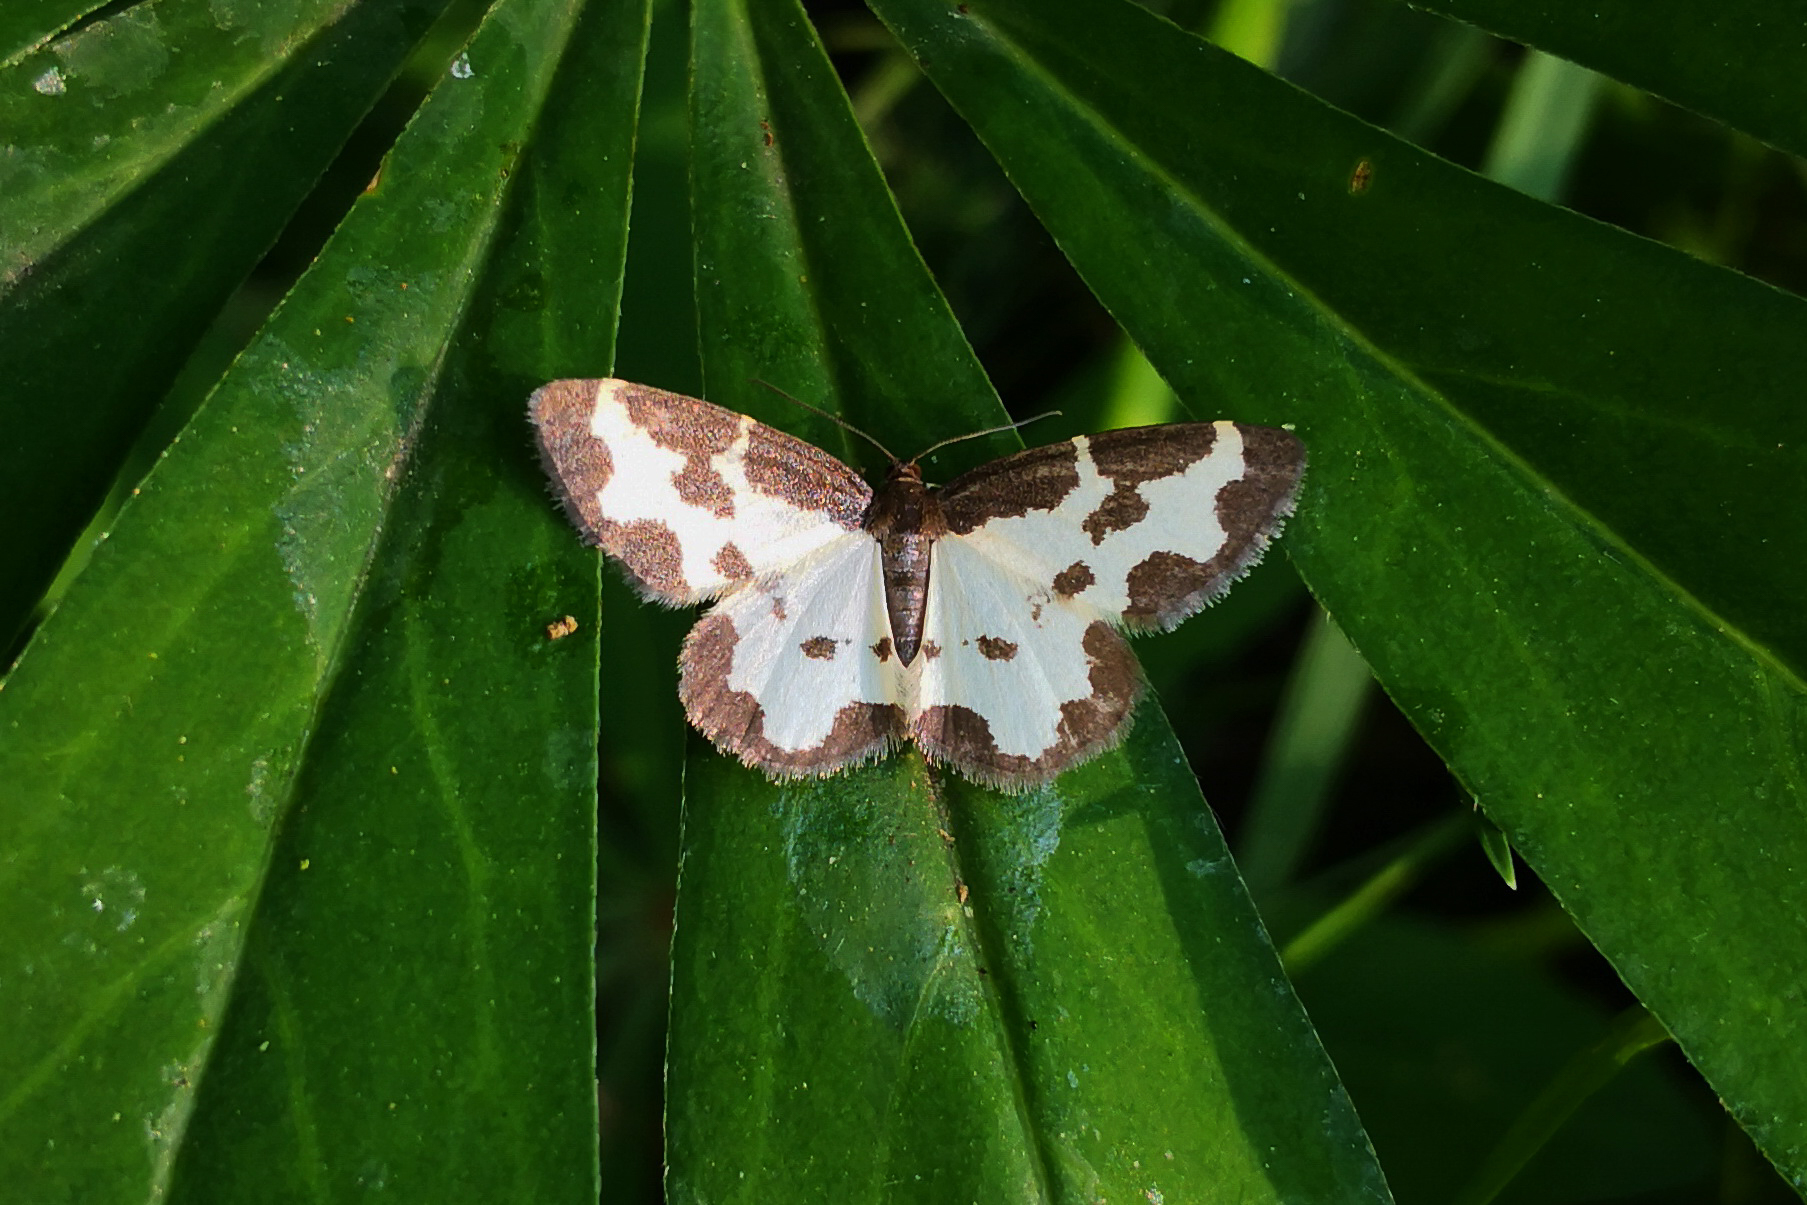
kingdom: Animalia
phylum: Arthropoda
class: Insecta
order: Lepidoptera
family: Geometridae
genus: Lomaspilis
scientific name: Lomaspilis marginata
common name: Clouded border
